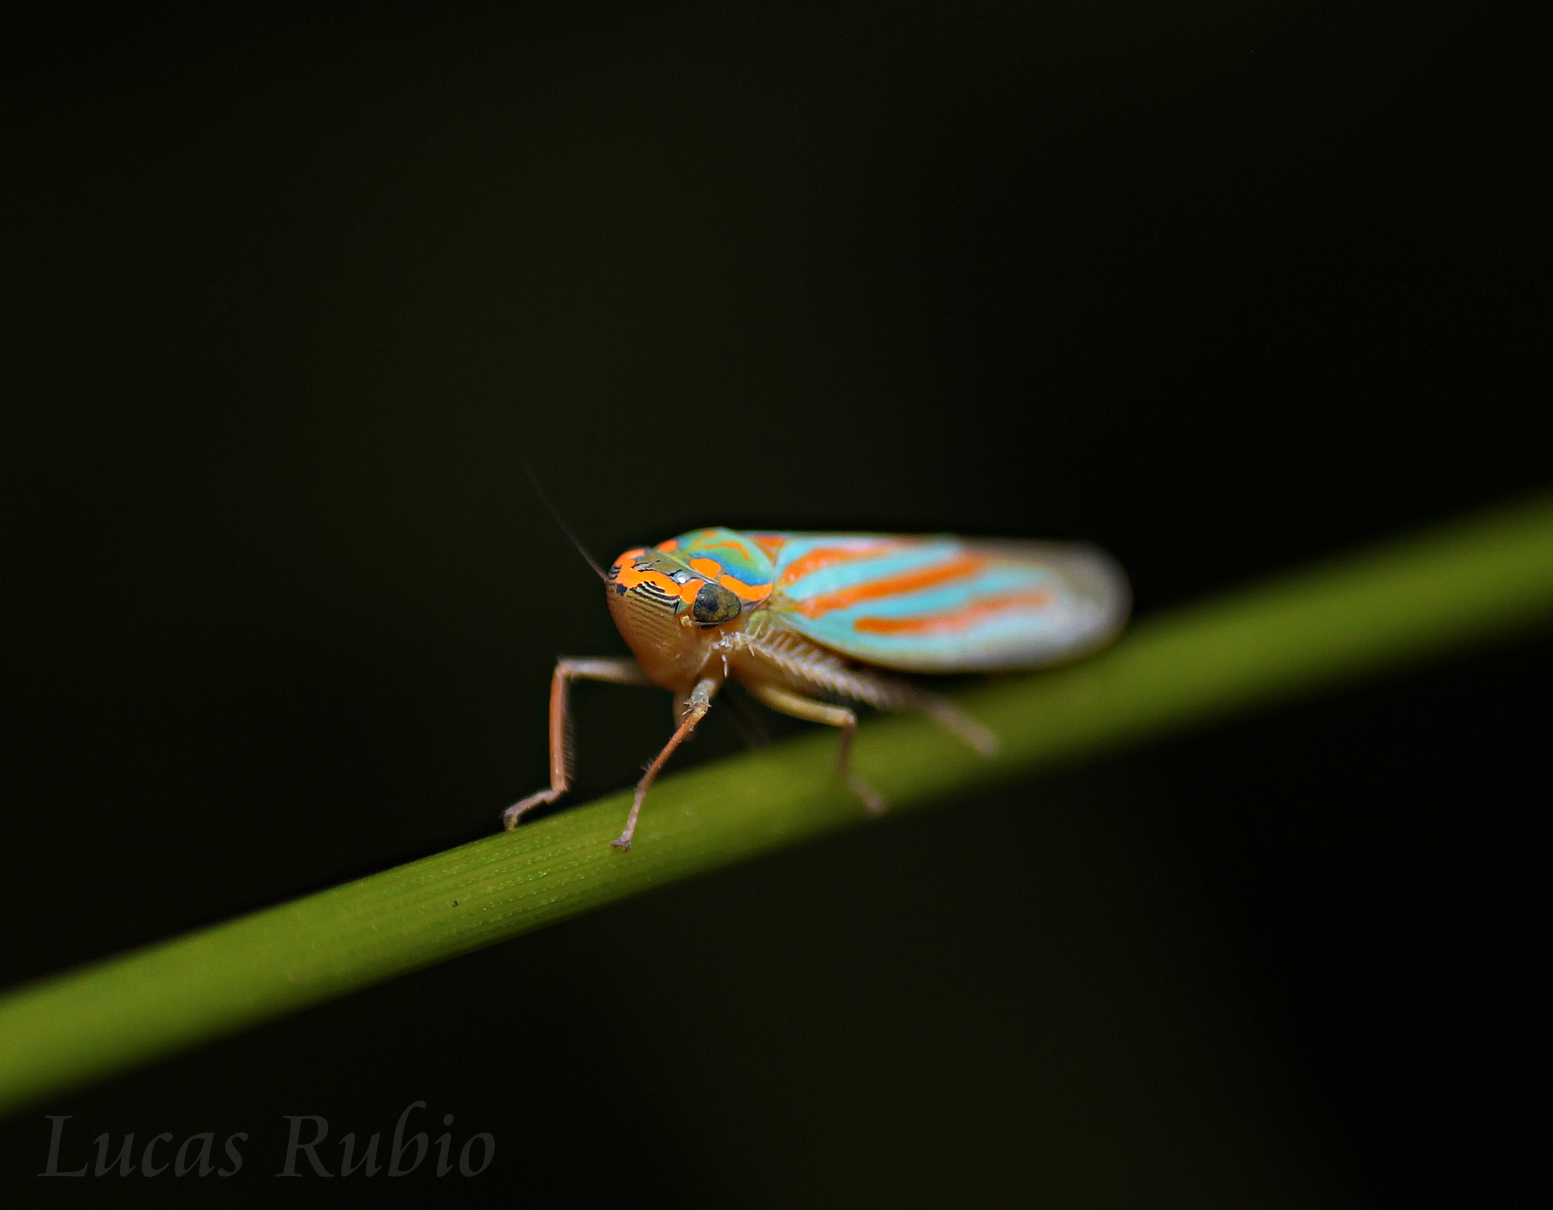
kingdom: Animalia
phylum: Arthropoda
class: Insecta
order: Hemiptera
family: Cicadellidae
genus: Ferrariana
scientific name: Ferrariana trivittata
